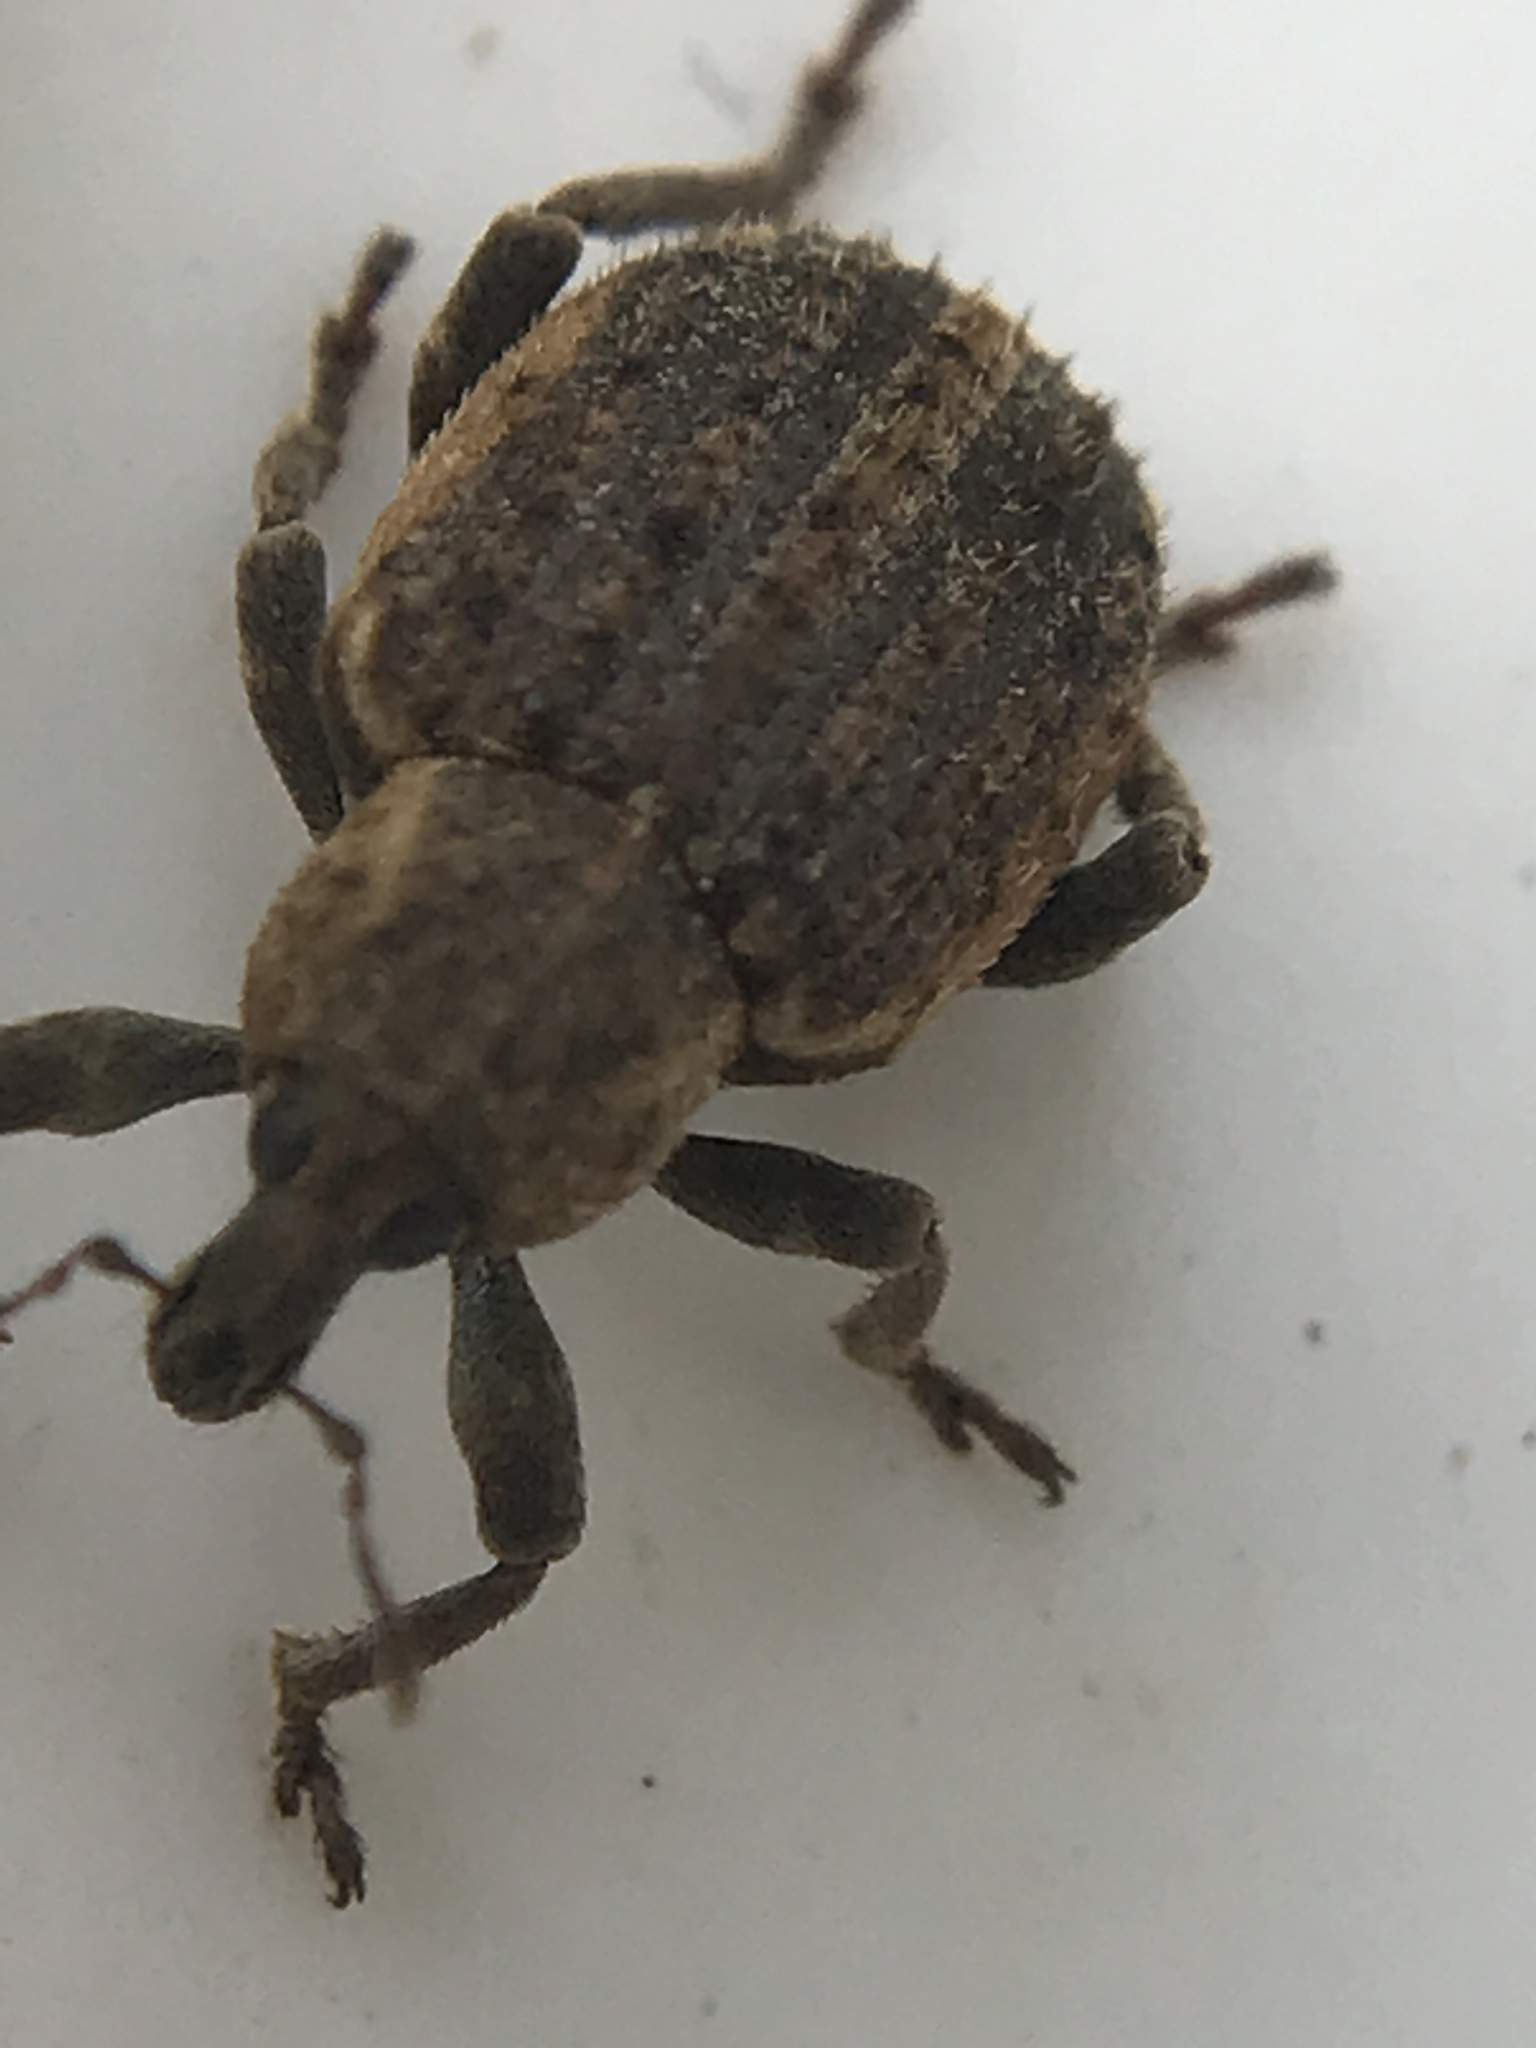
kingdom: Animalia
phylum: Arthropoda
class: Insecta
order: Coleoptera
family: Curculionidae
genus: Brachypera
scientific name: Brachypera zoilus
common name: Clover leaf weevil
